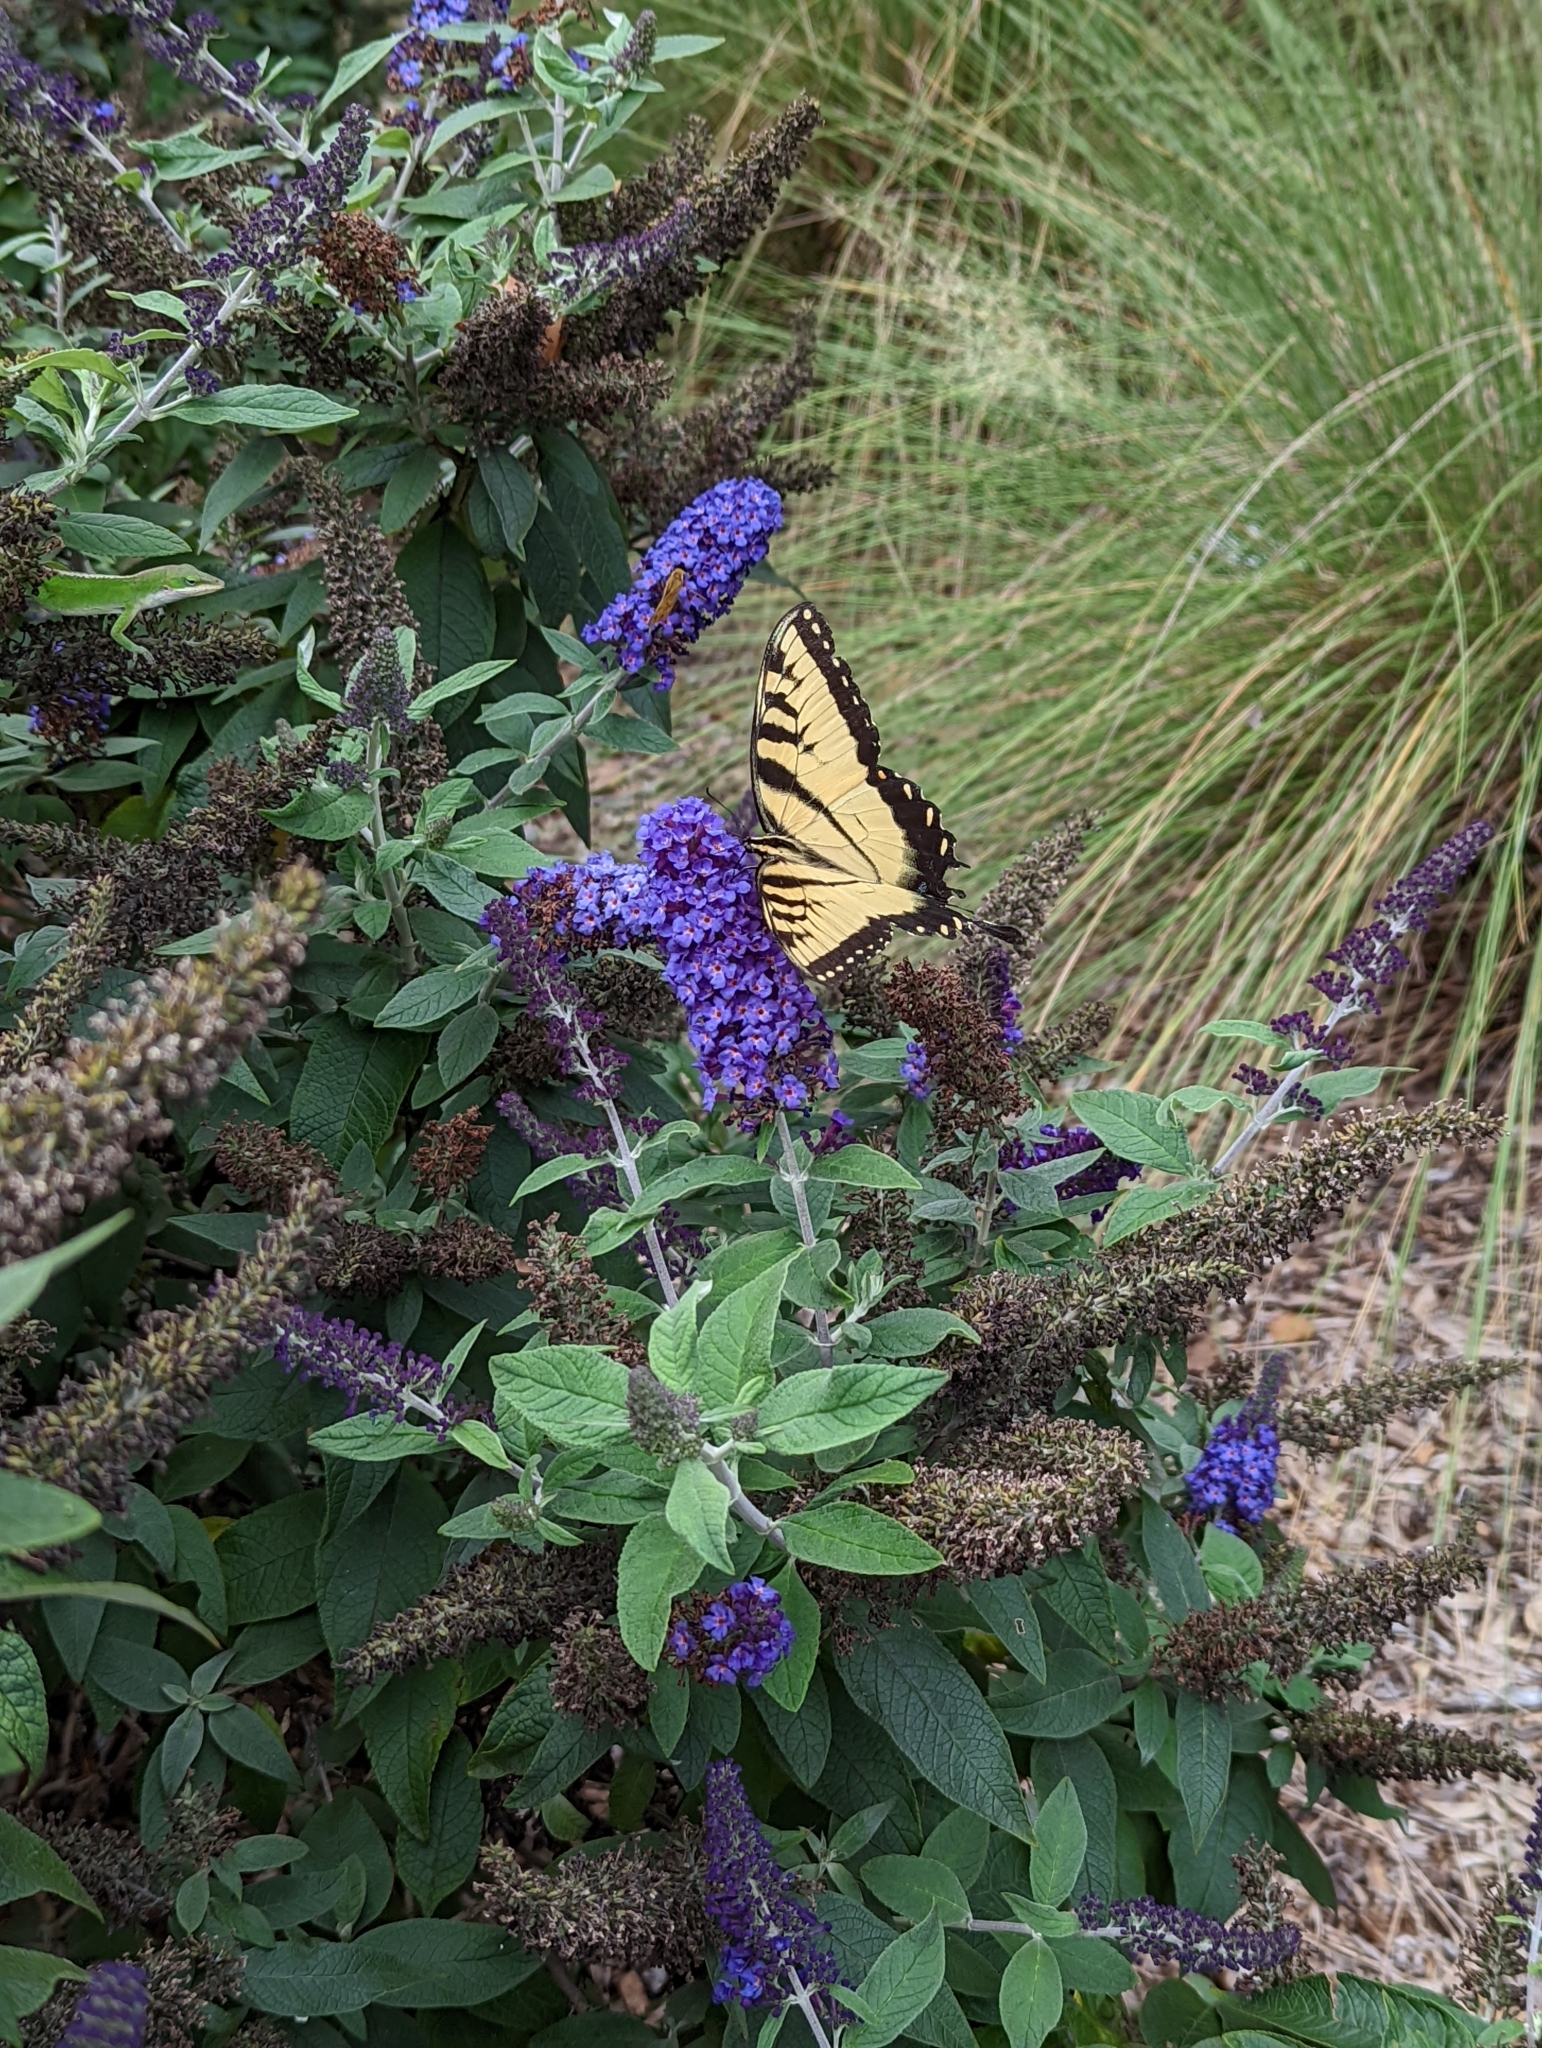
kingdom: Animalia
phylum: Arthropoda
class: Insecta
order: Lepidoptera
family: Papilionidae
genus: Papilio
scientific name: Papilio glaucus
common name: Tiger swallowtail
